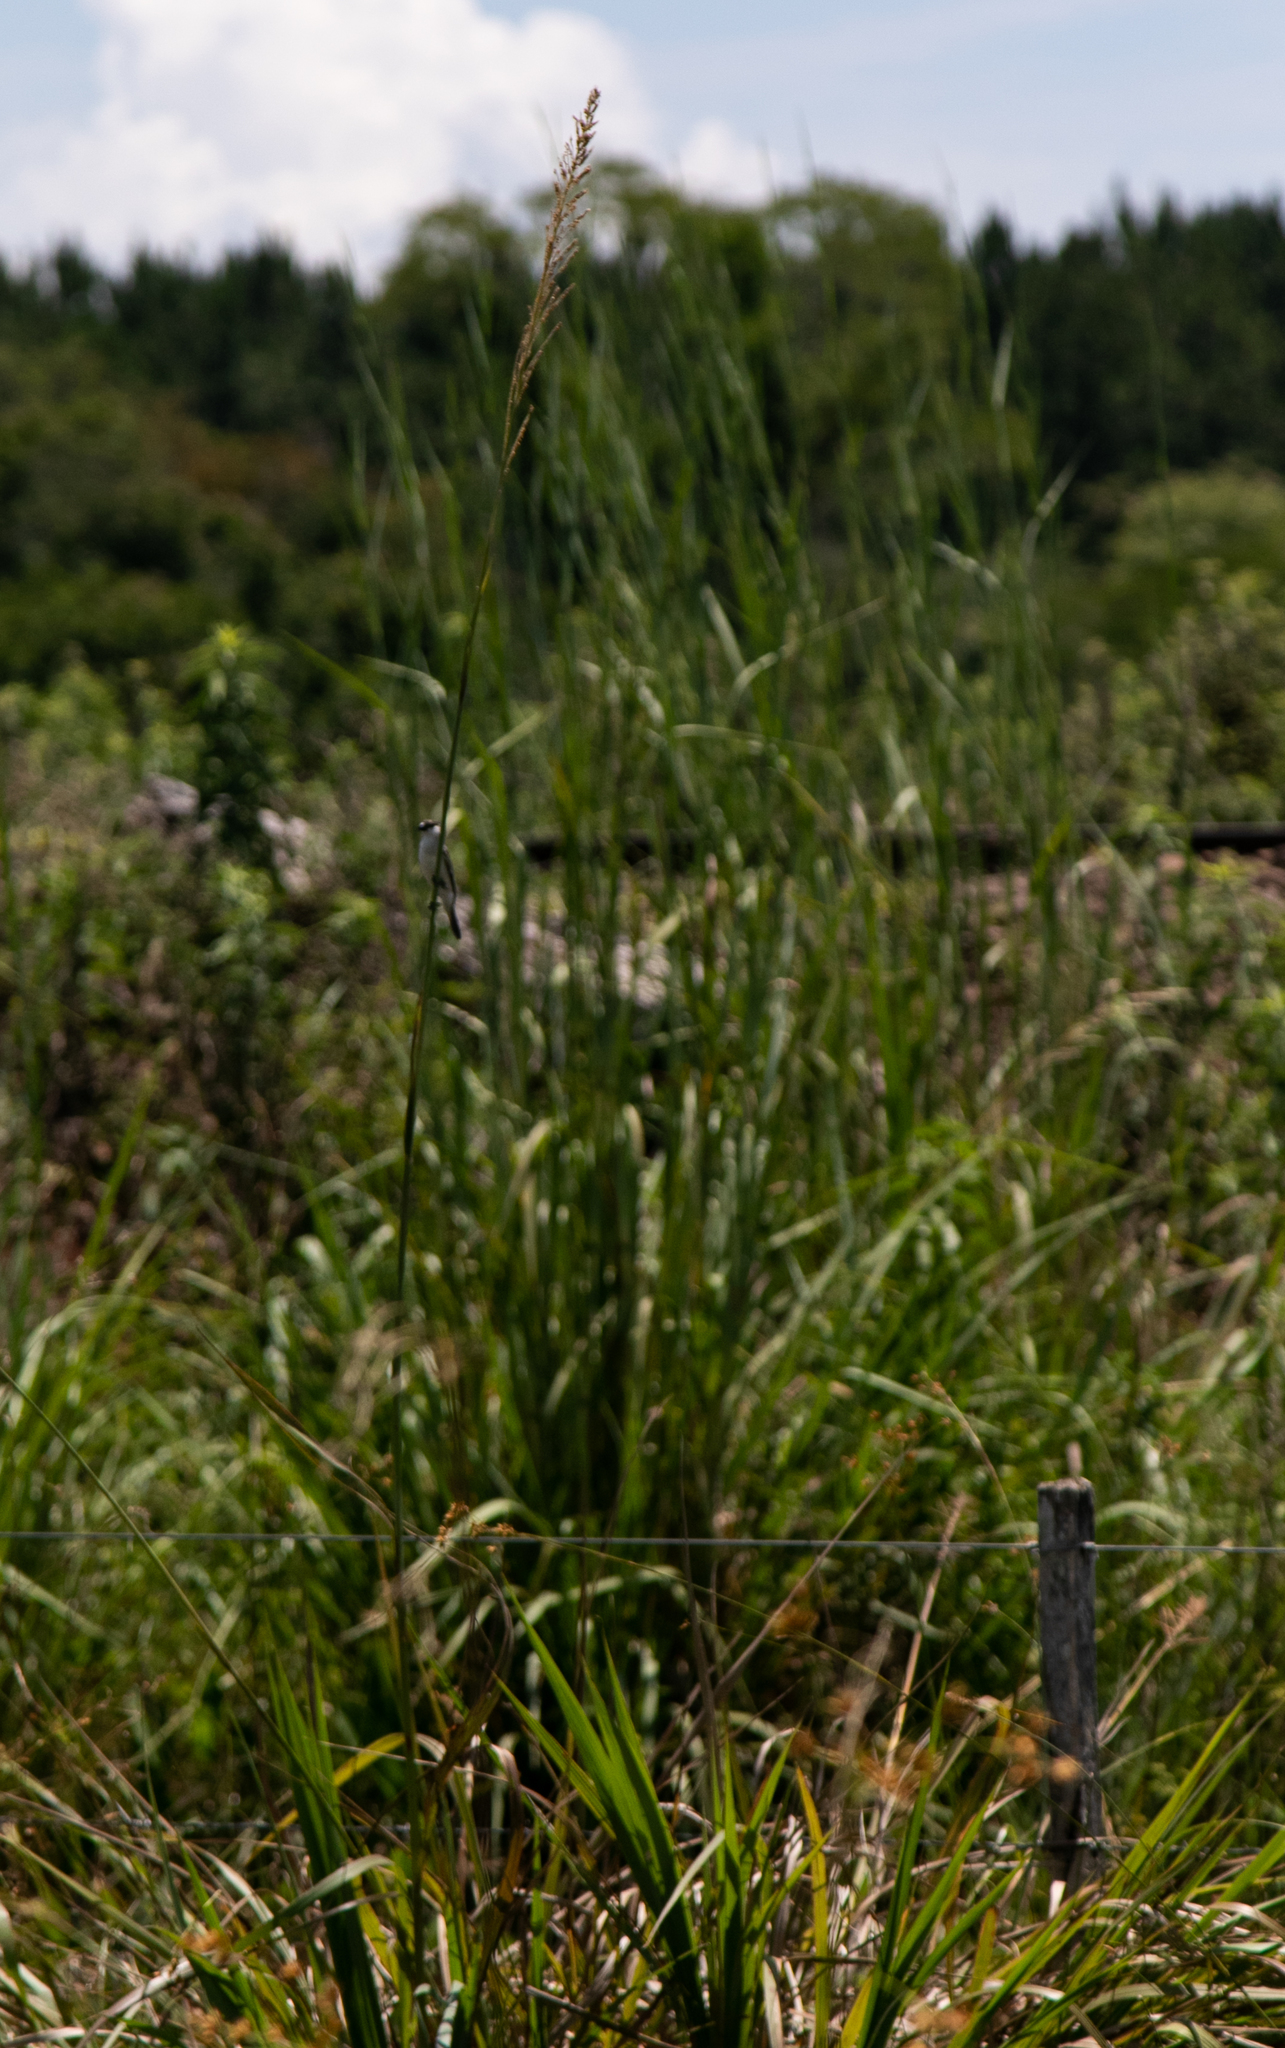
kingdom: Animalia
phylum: Chordata
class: Aves
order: Passeriformes
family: Thraupidae
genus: Sporophila
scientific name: Sporophila pileata
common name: Pearly-bellied seedeater
